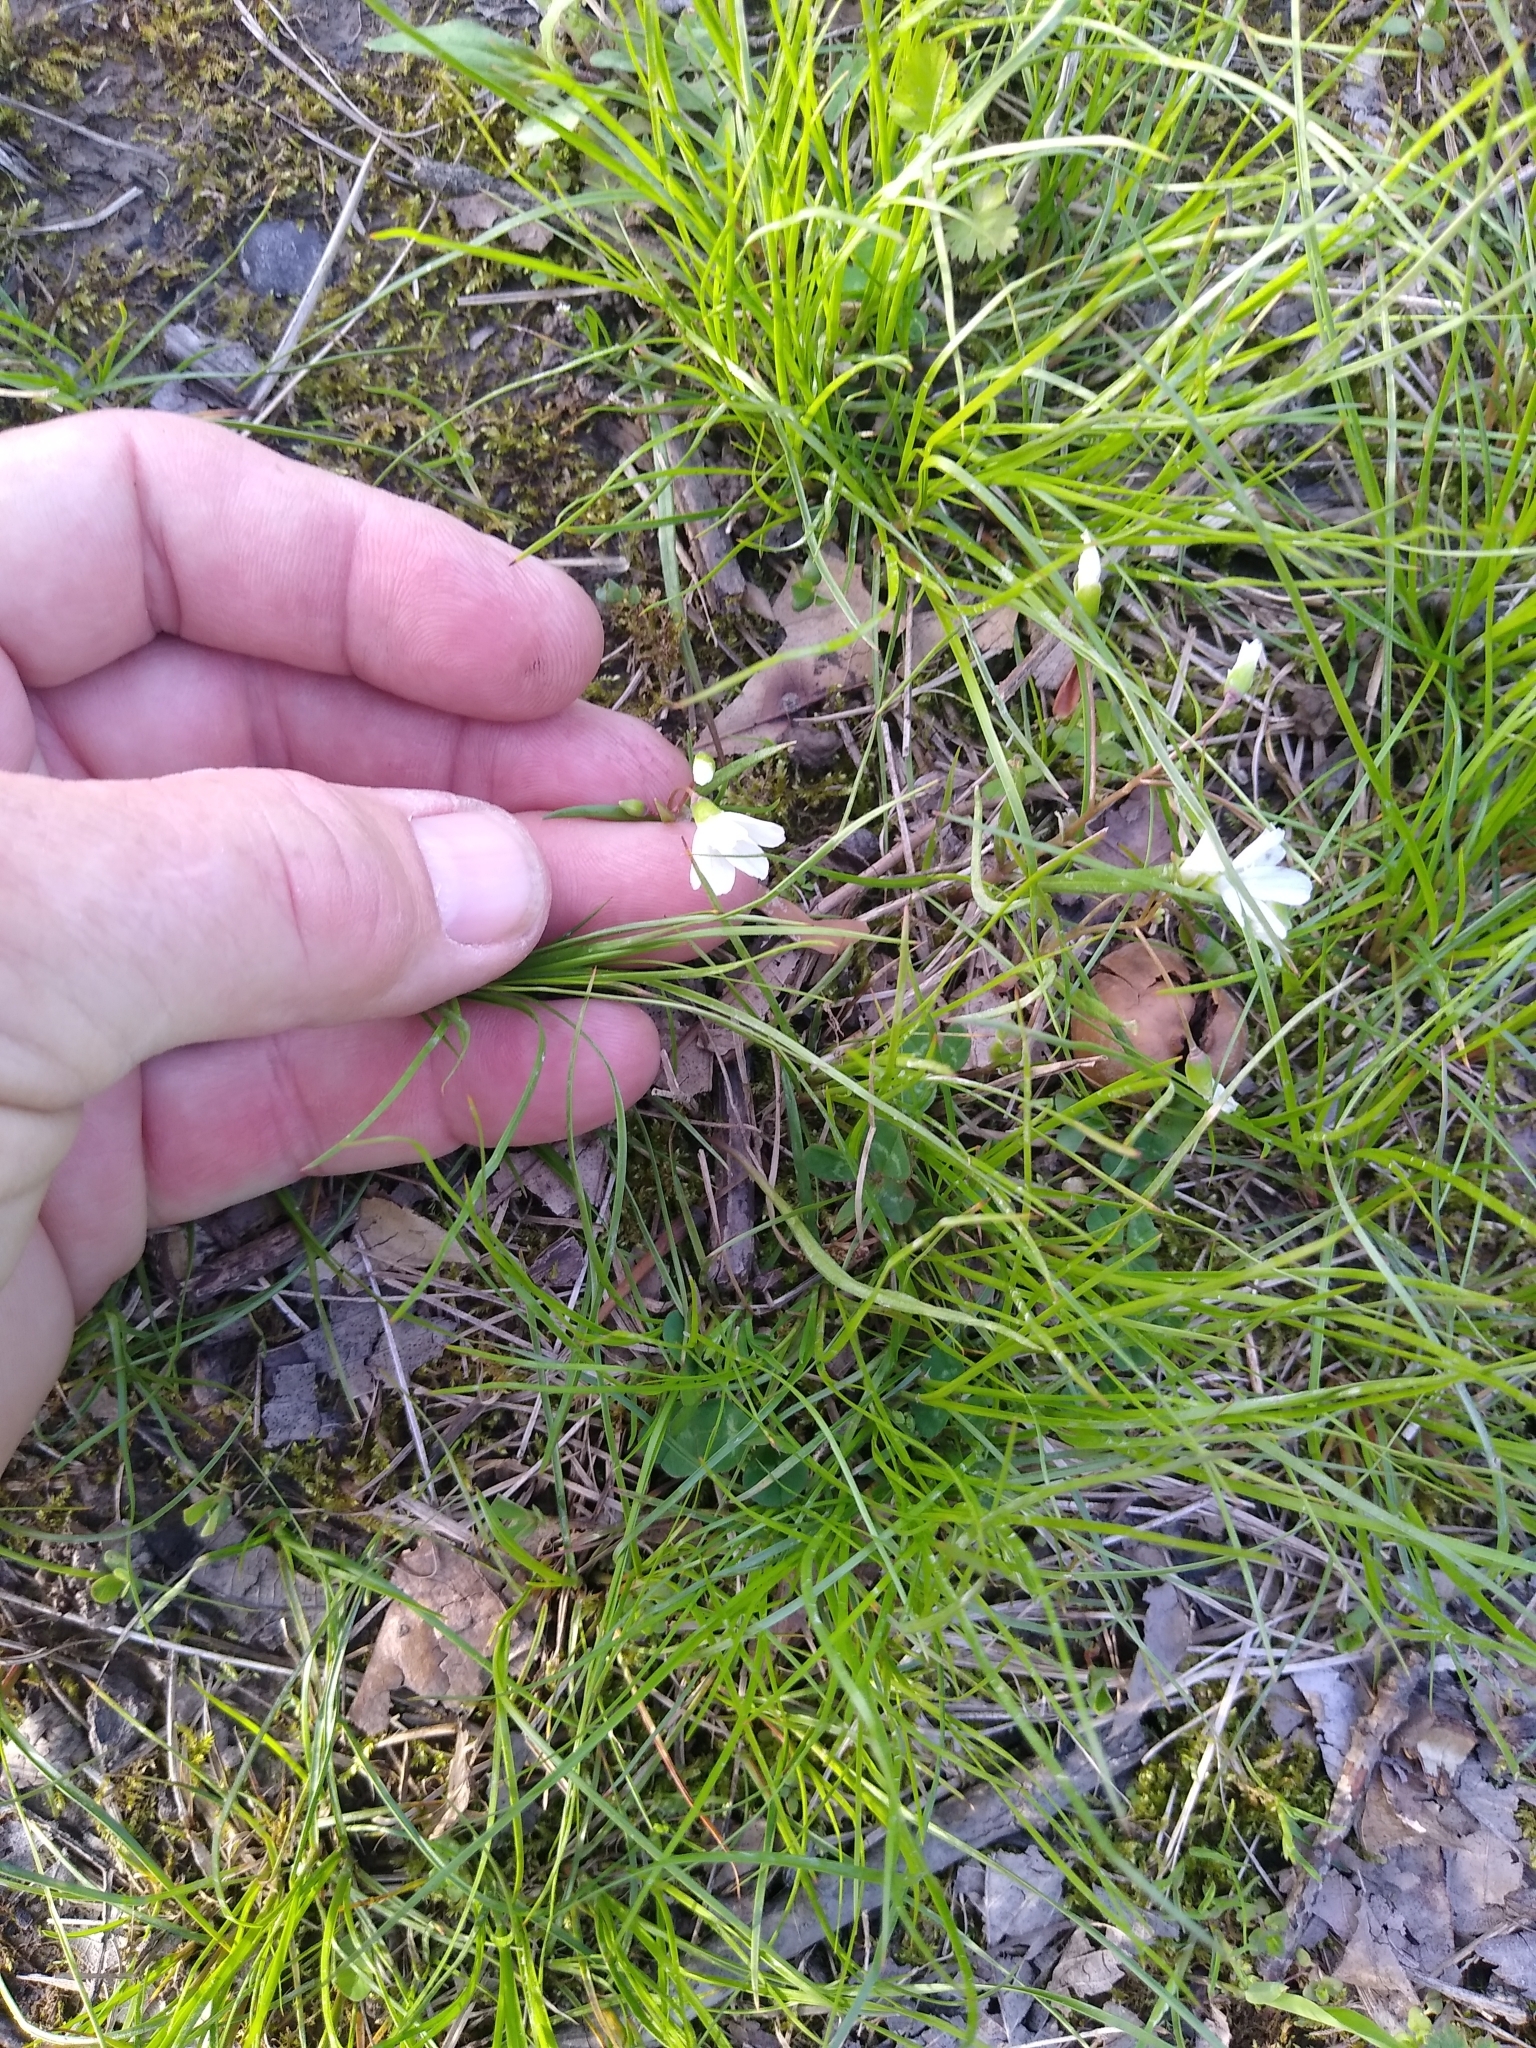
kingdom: Plantae
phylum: Tracheophyta
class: Magnoliopsida
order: Caryophyllales
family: Montiaceae
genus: Claytonia
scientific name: Claytonia virginica
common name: Virginia springbeauty
